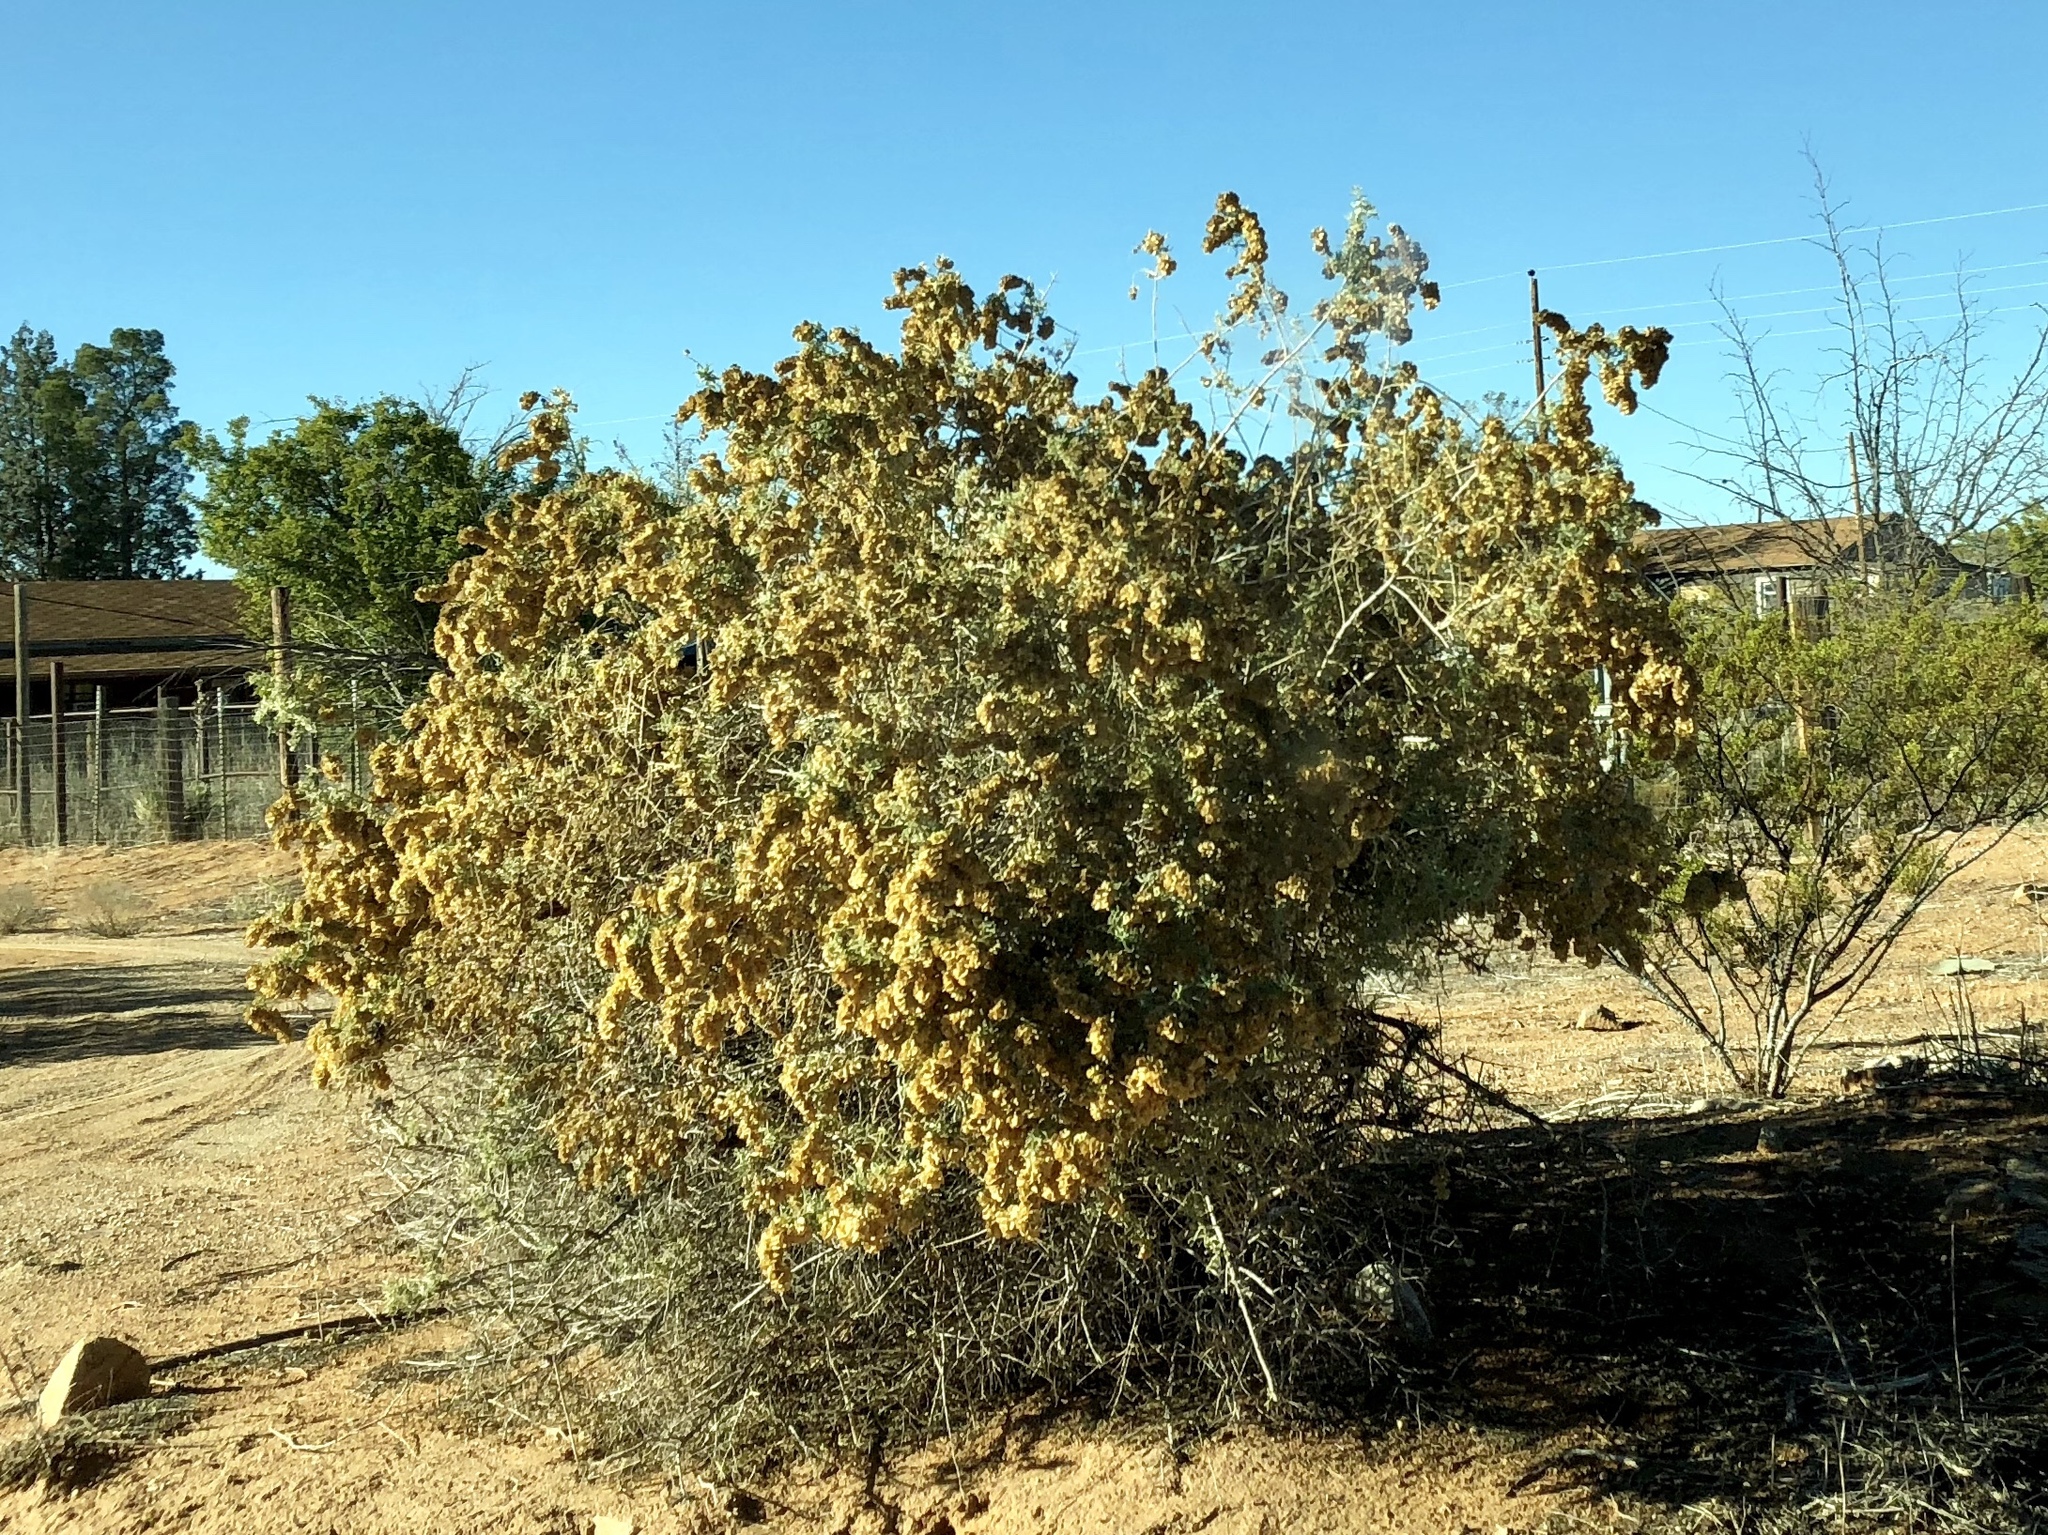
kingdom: Plantae
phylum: Tracheophyta
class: Magnoliopsida
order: Caryophyllales
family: Amaranthaceae
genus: Atriplex
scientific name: Atriplex canescens
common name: Four-wing saltbush
